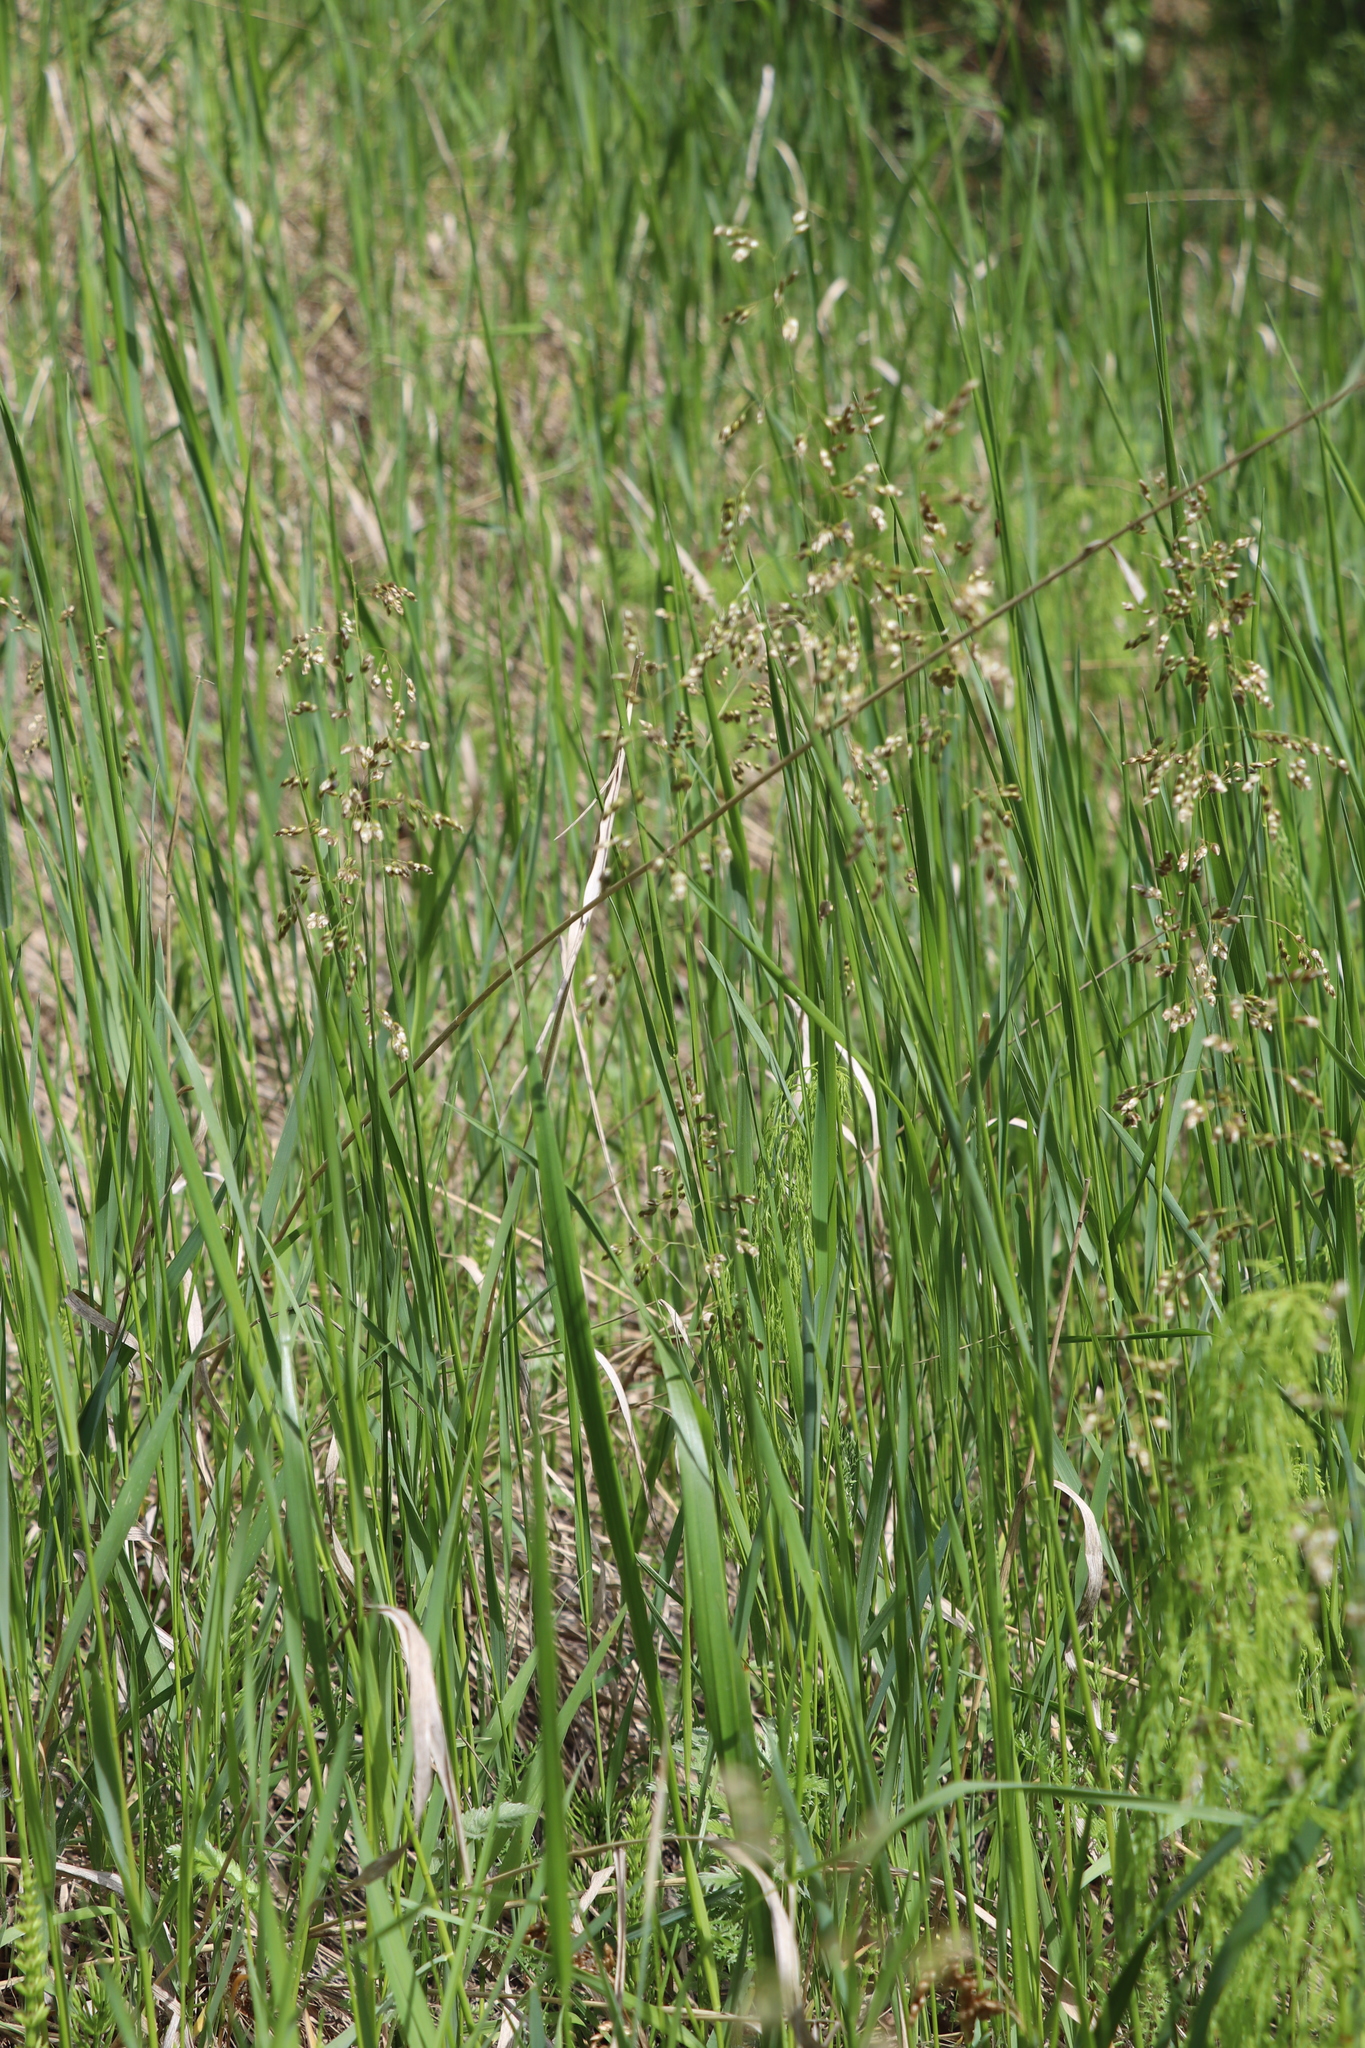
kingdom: Plantae
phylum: Tracheophyta
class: Liliopsida
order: Poales
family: Poaceae
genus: Anthoxanthum
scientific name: Anthoxanthum nitens
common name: Holy grass
